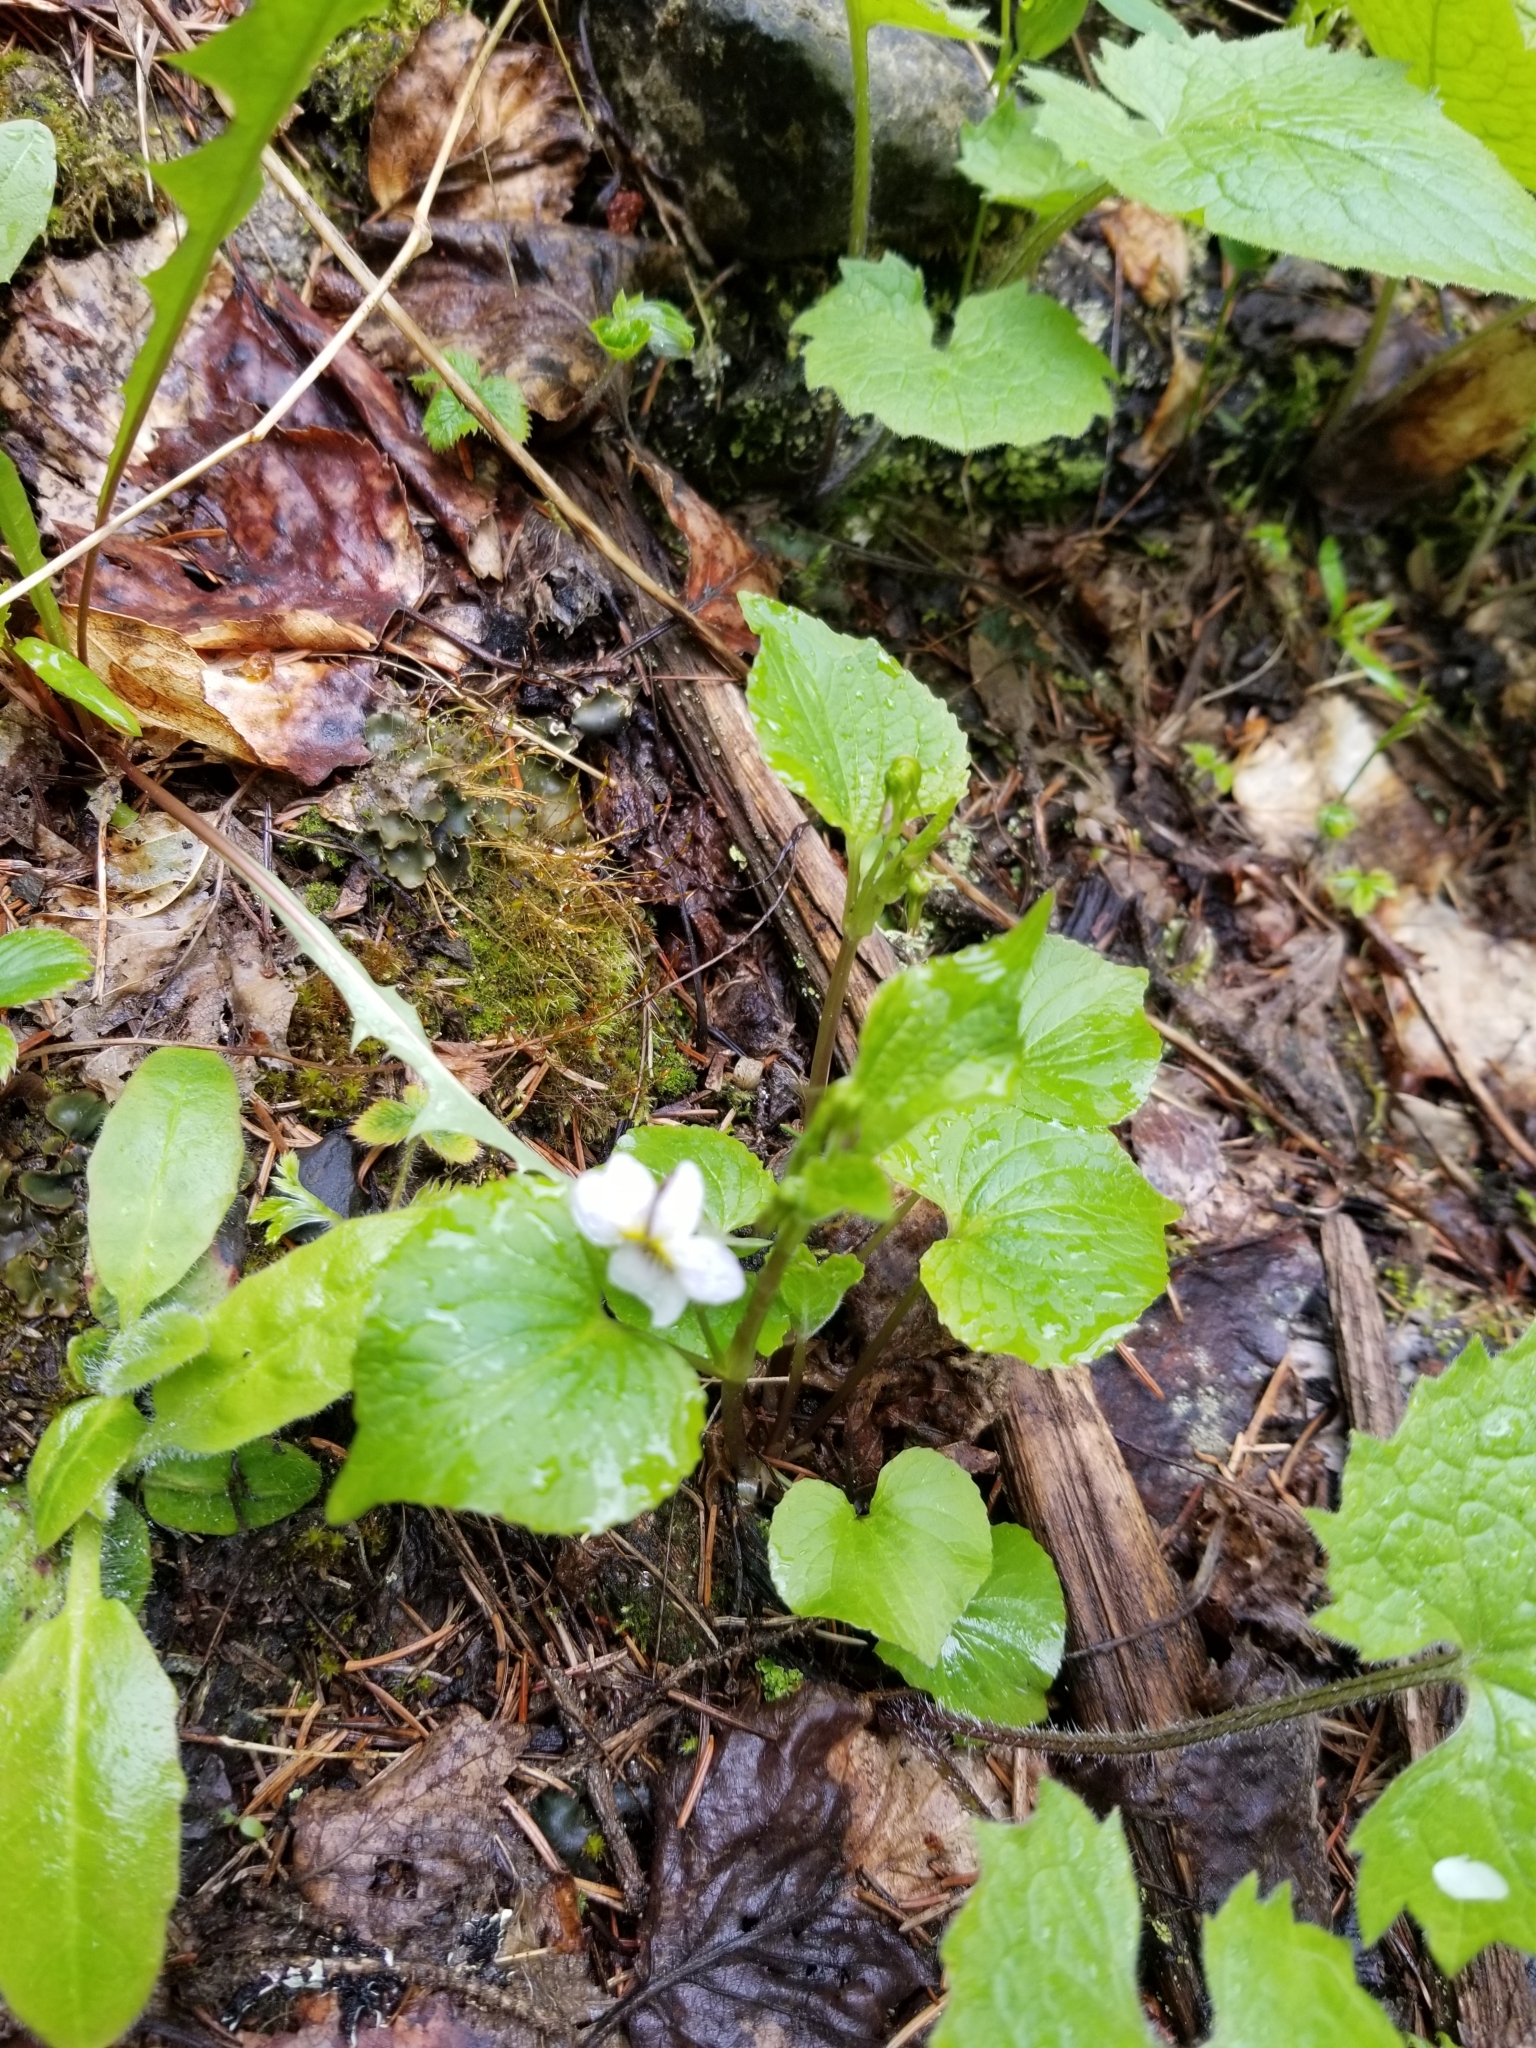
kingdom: Plantae
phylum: Tracheophyta
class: Magnoliopsida
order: Malpighiales
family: Violaceae
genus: Viola
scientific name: Viola canadensis
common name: Canada violet
